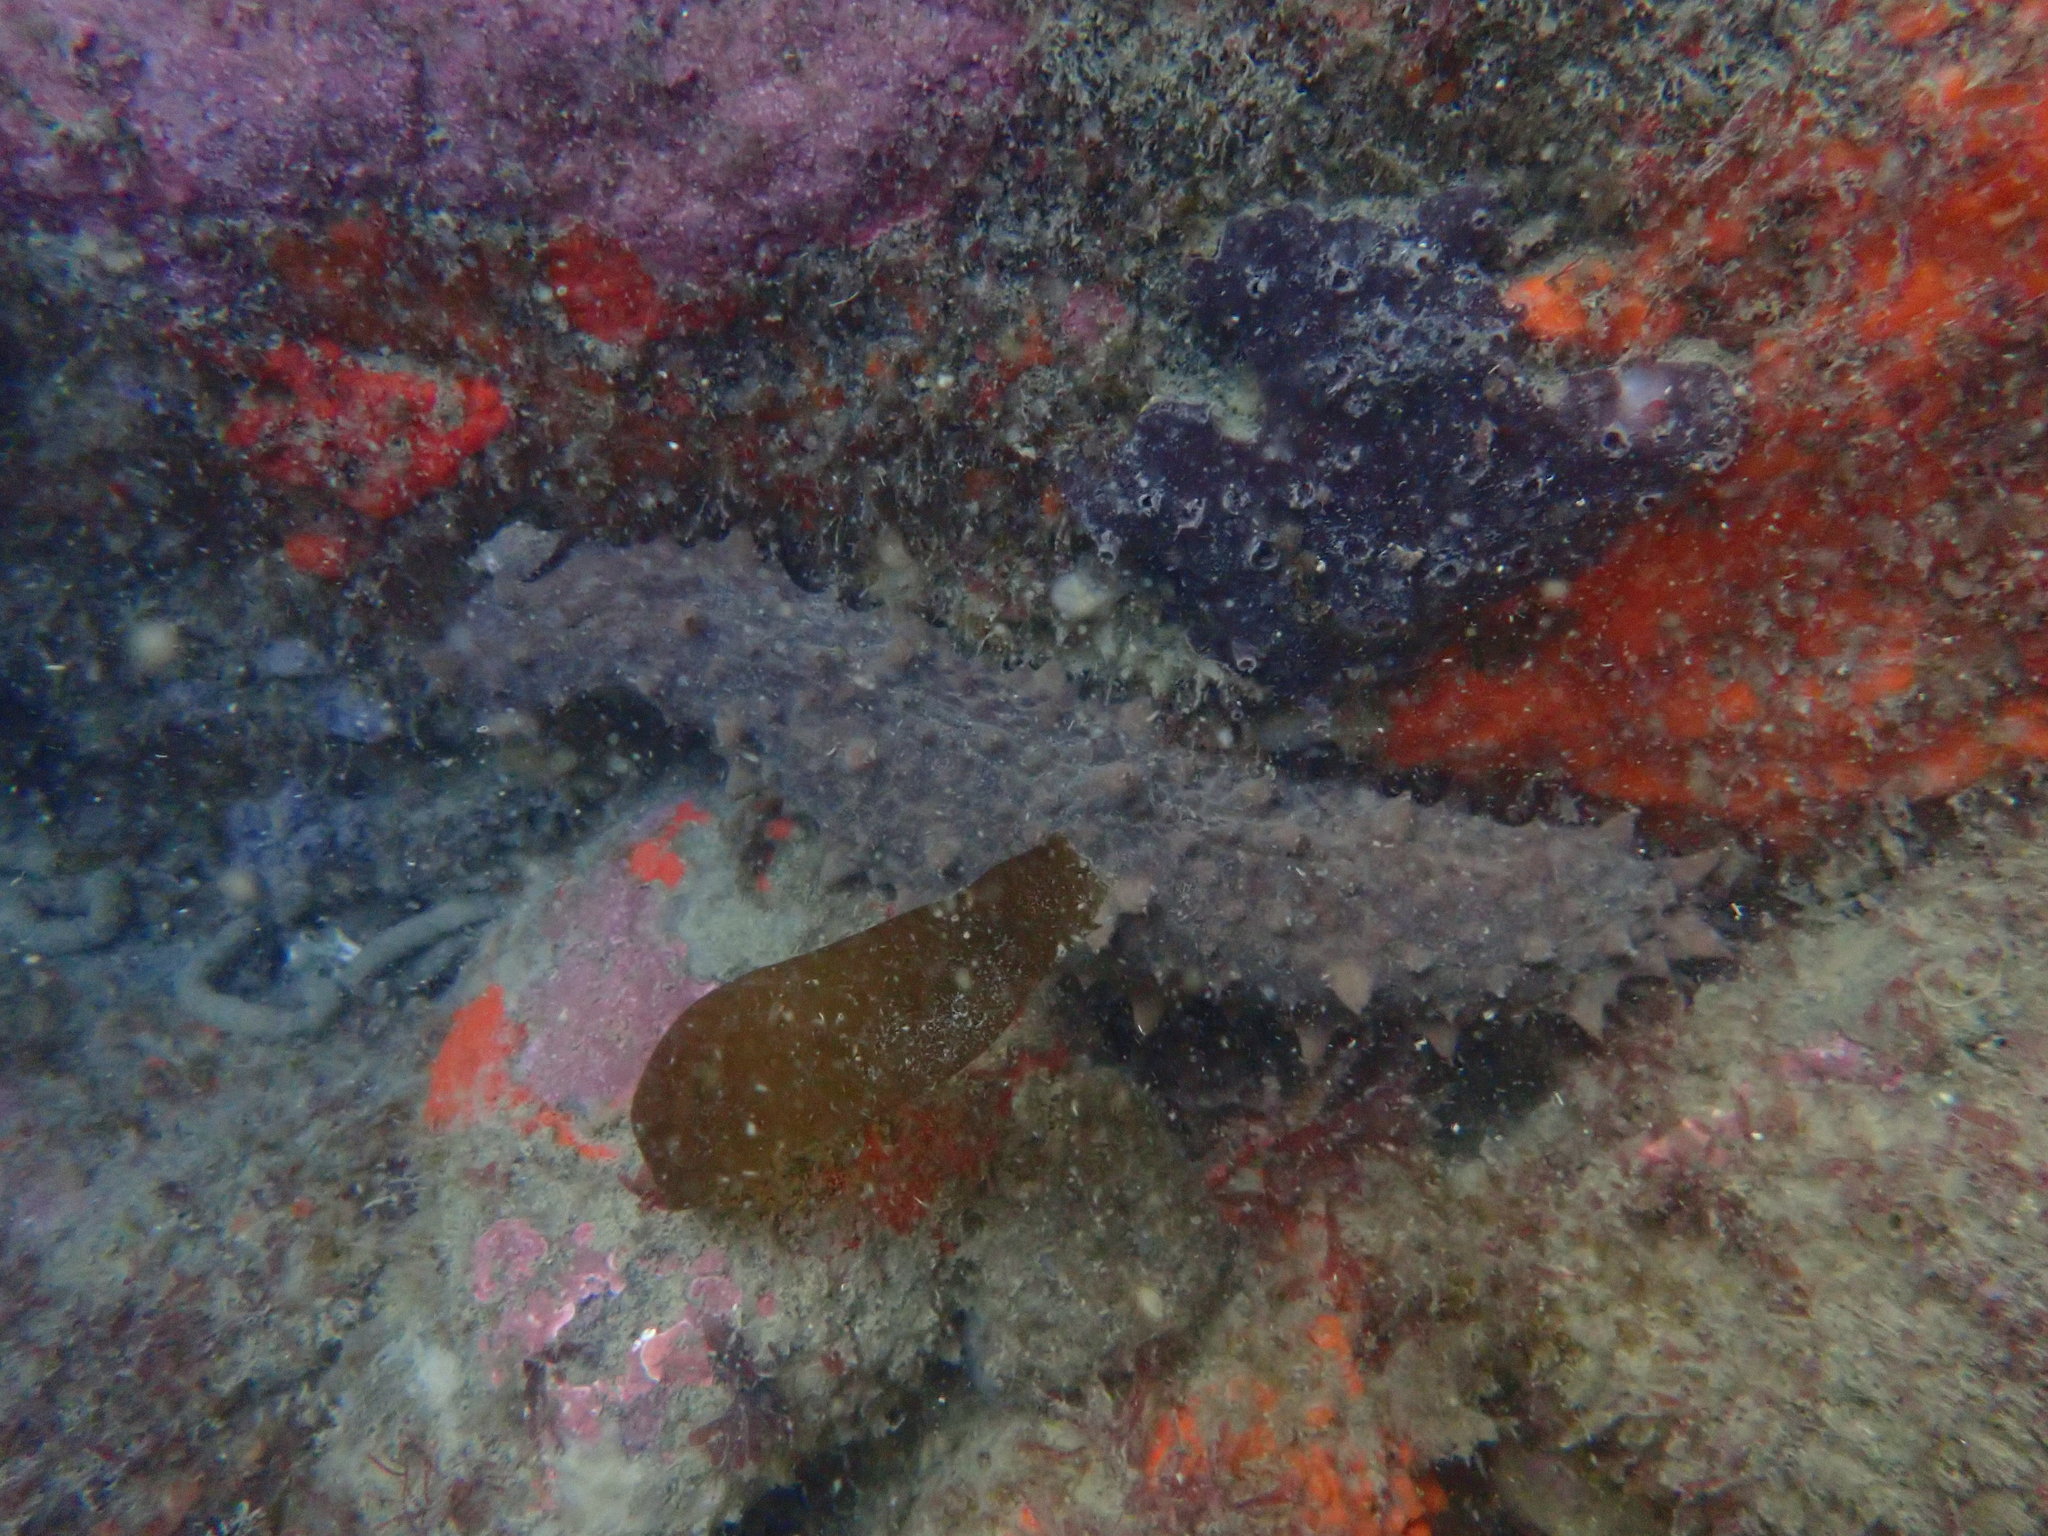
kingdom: Animalia
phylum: Echinodermata
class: Holothuroidea
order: Synallactida
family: Stichopodidae
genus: Australostichopus
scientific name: Australostichopus mollis
